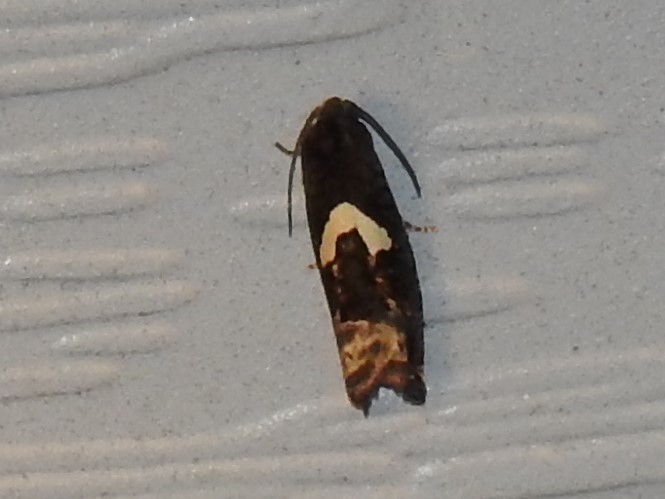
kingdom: Animalia
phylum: Arthropoda
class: Insecta
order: Lepidoptera
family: Tortricidae
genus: Epiblema
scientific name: Epiblema otiosana
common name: Bidens borer moth
